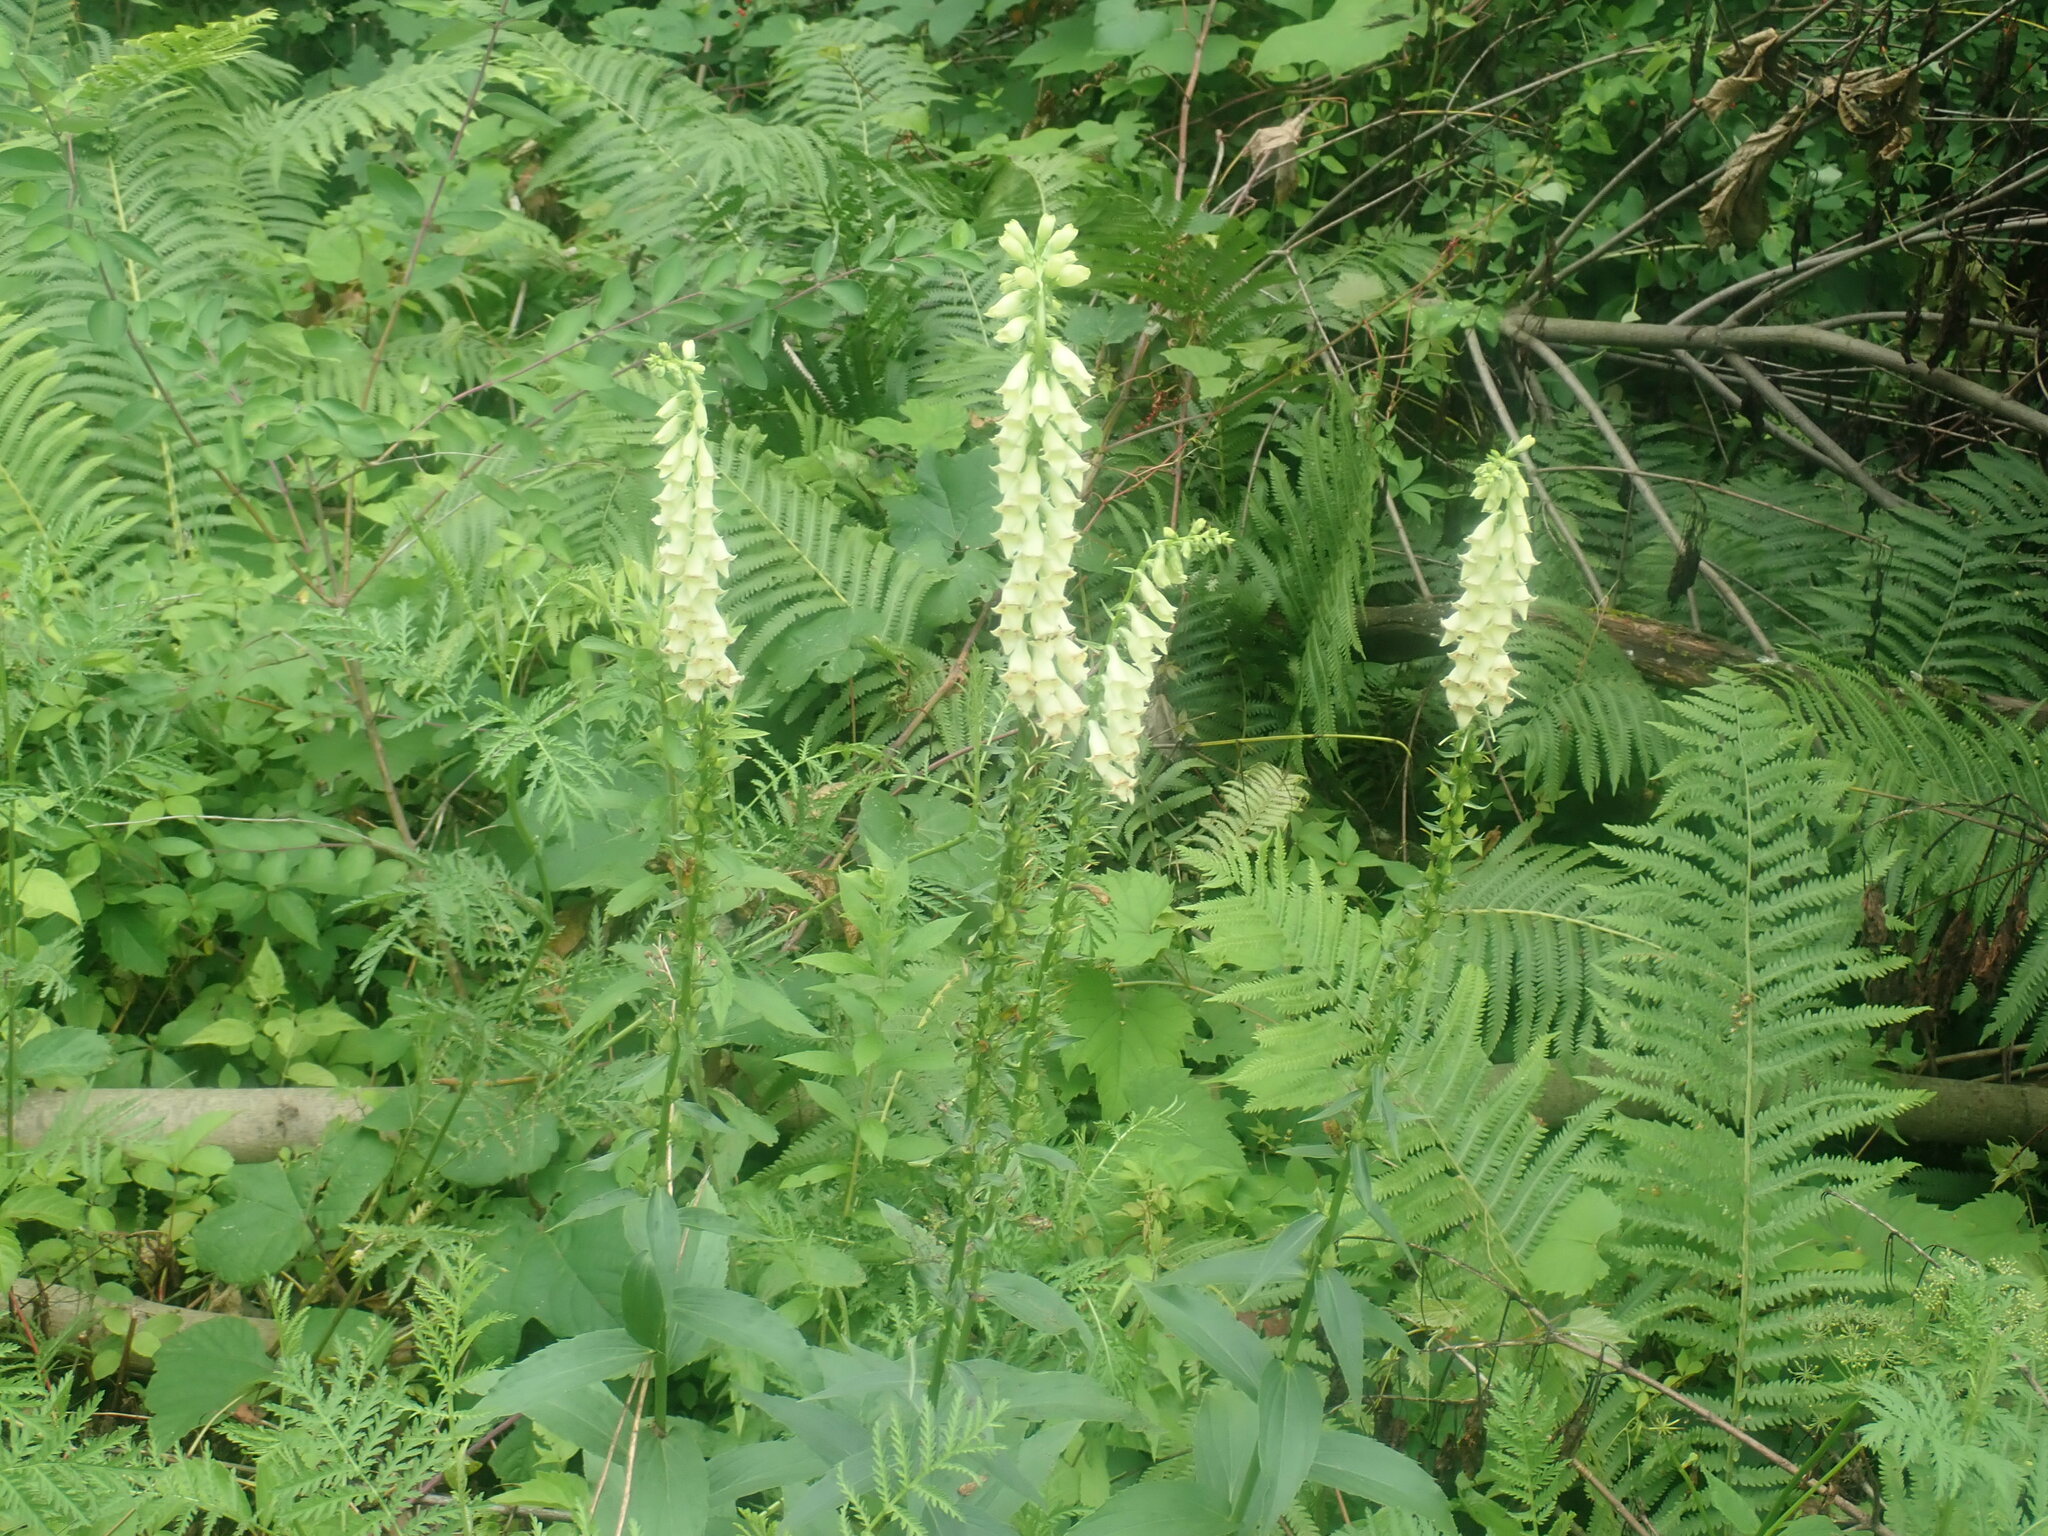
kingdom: Plantae
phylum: Tracheophyta
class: Magnoliopsida
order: Lamiales
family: Plantaginaceae
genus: Digitalis
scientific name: Digitalis lutea
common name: Straw foxglove
